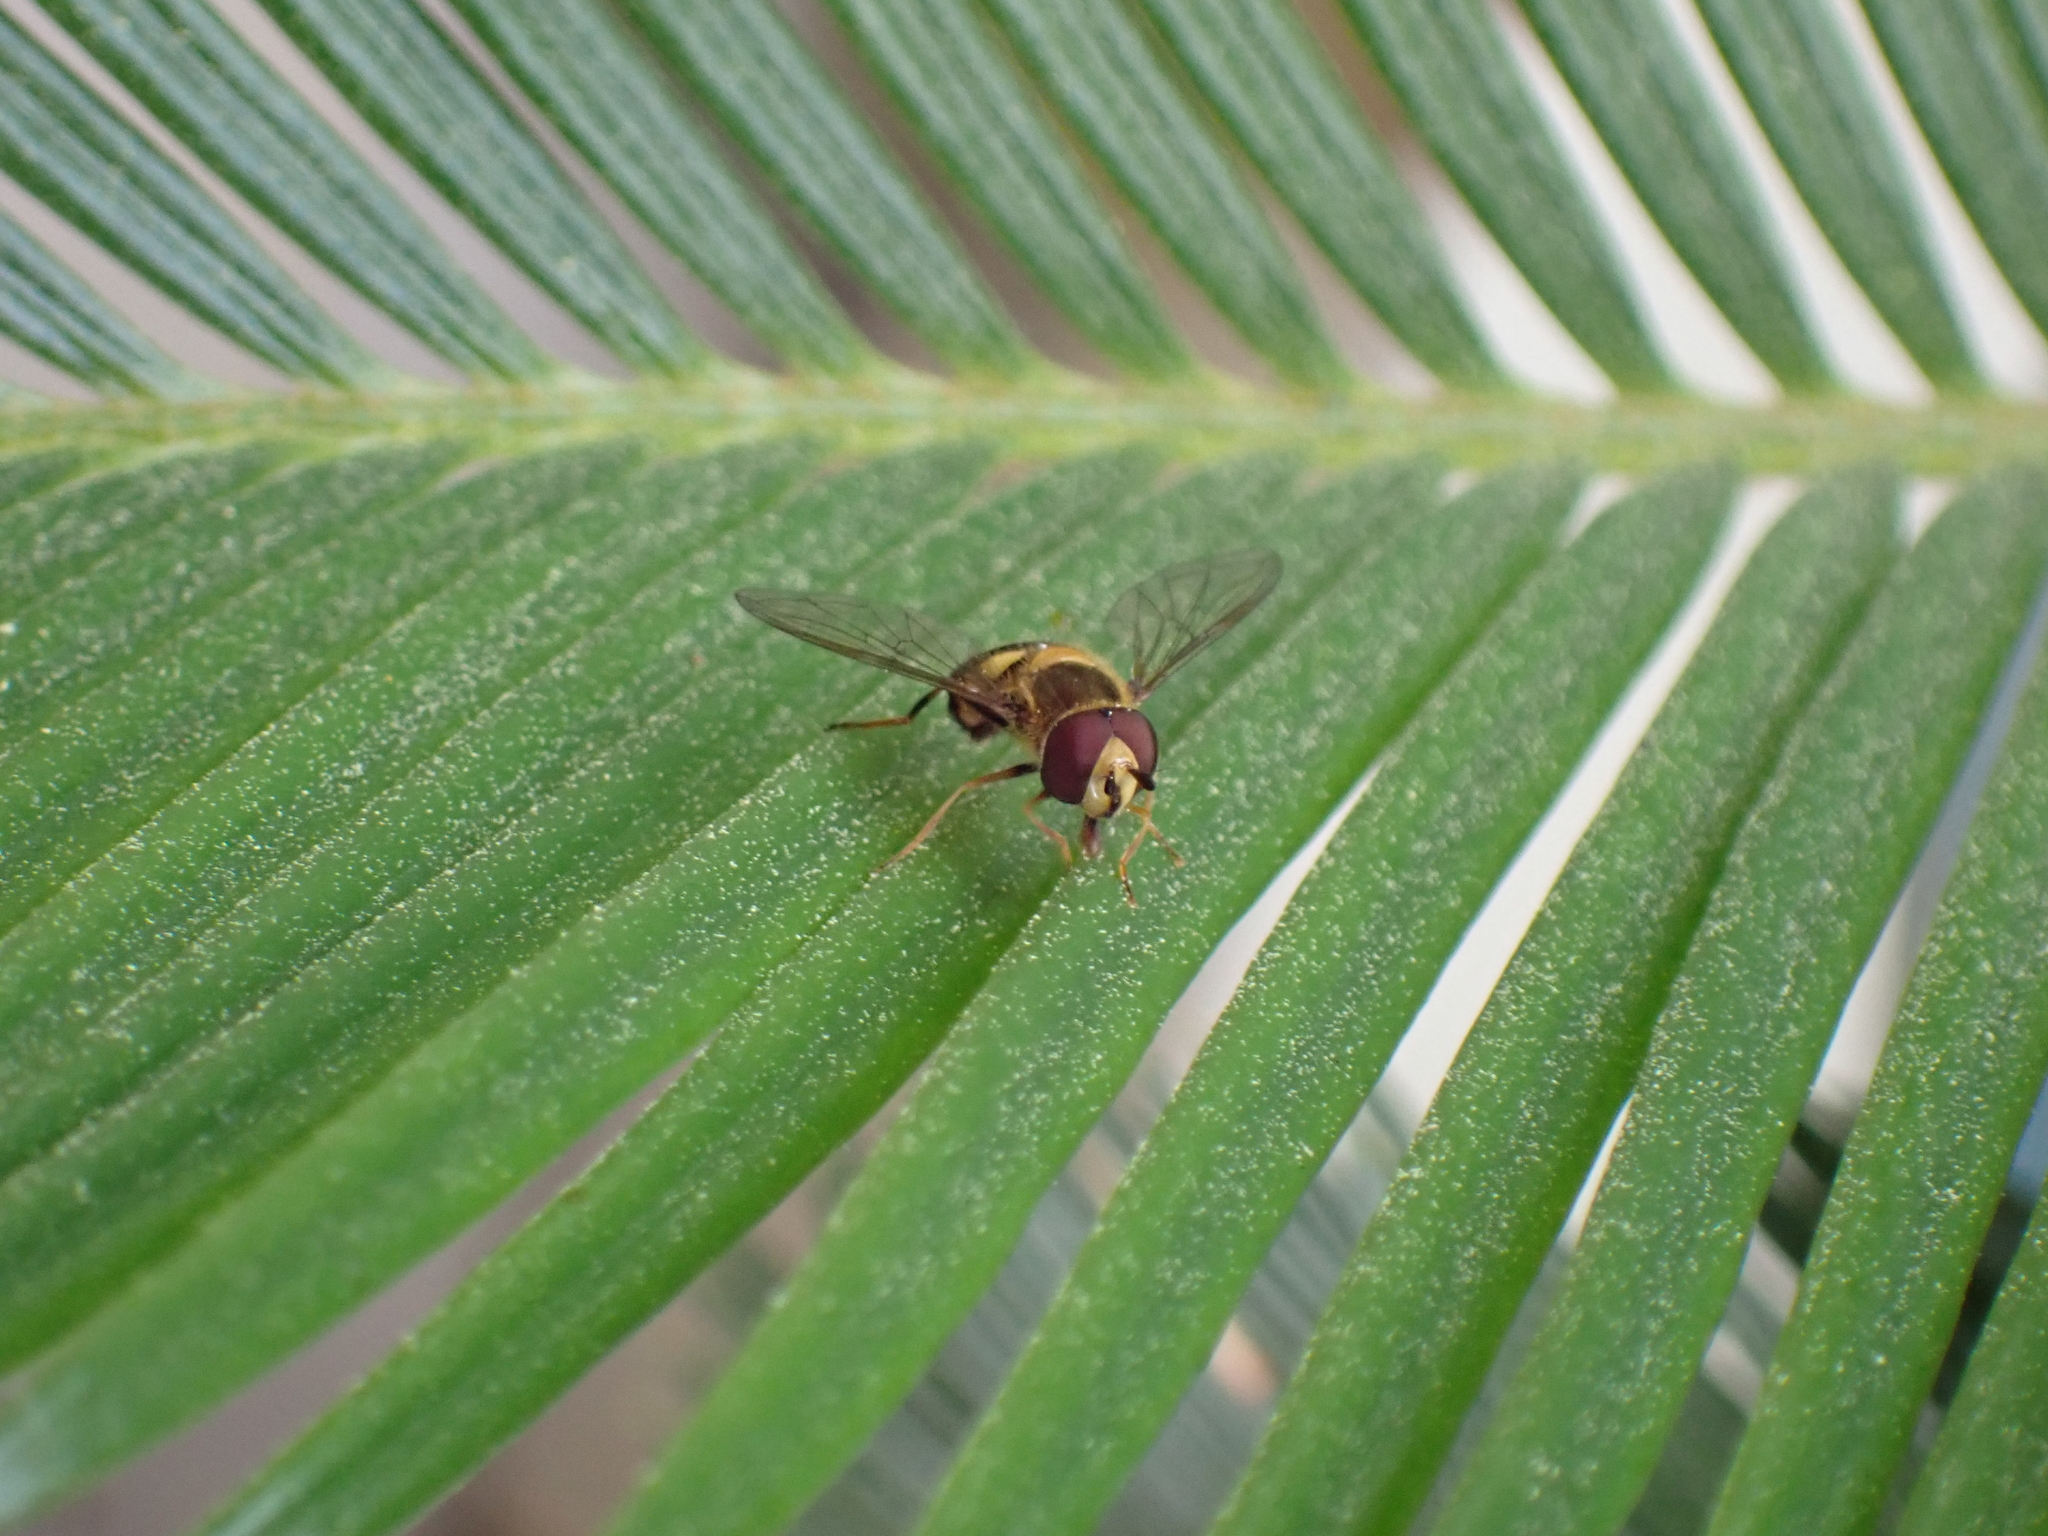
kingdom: Animalia
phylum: Arthropoda
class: Insecta
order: Diptera
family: Syrphidae
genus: Eupeodes
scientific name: Eupeodes
